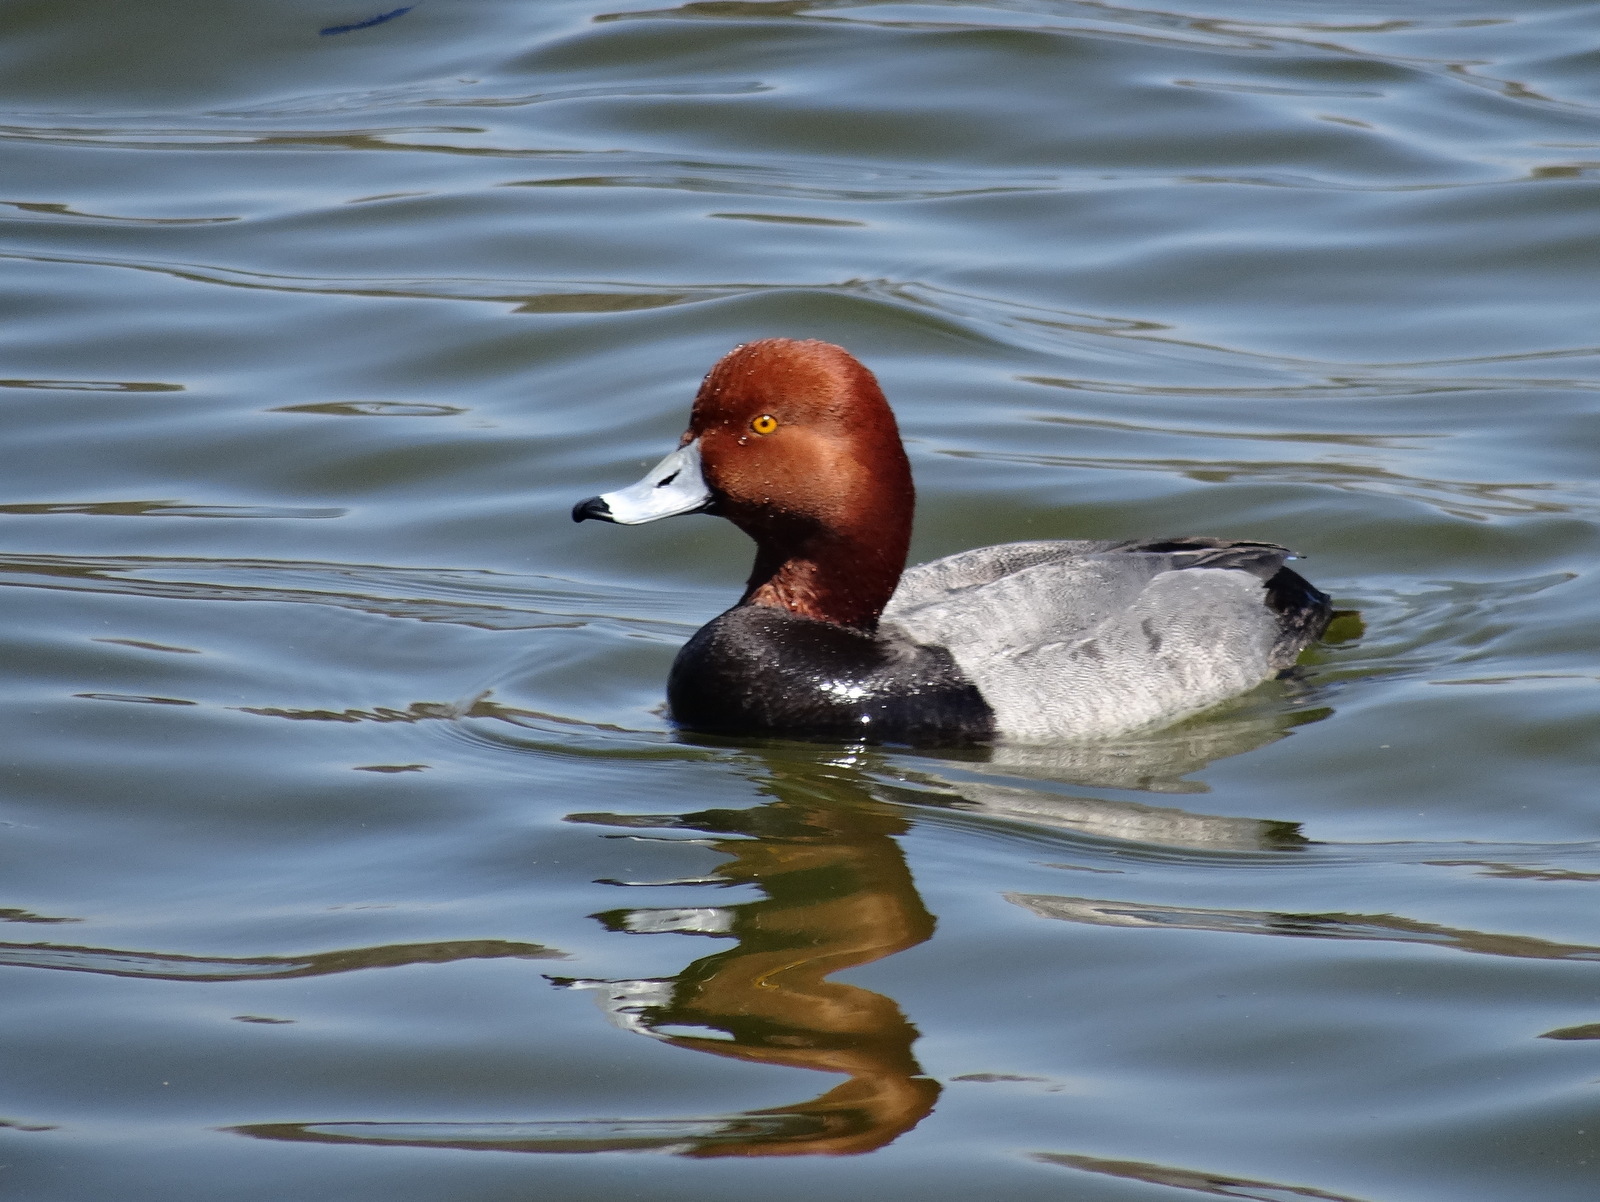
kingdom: Animalia
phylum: Chordata
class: Aves
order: Anseriformes
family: Anatidae
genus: Aythya
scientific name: Aythya americana
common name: Redhead
